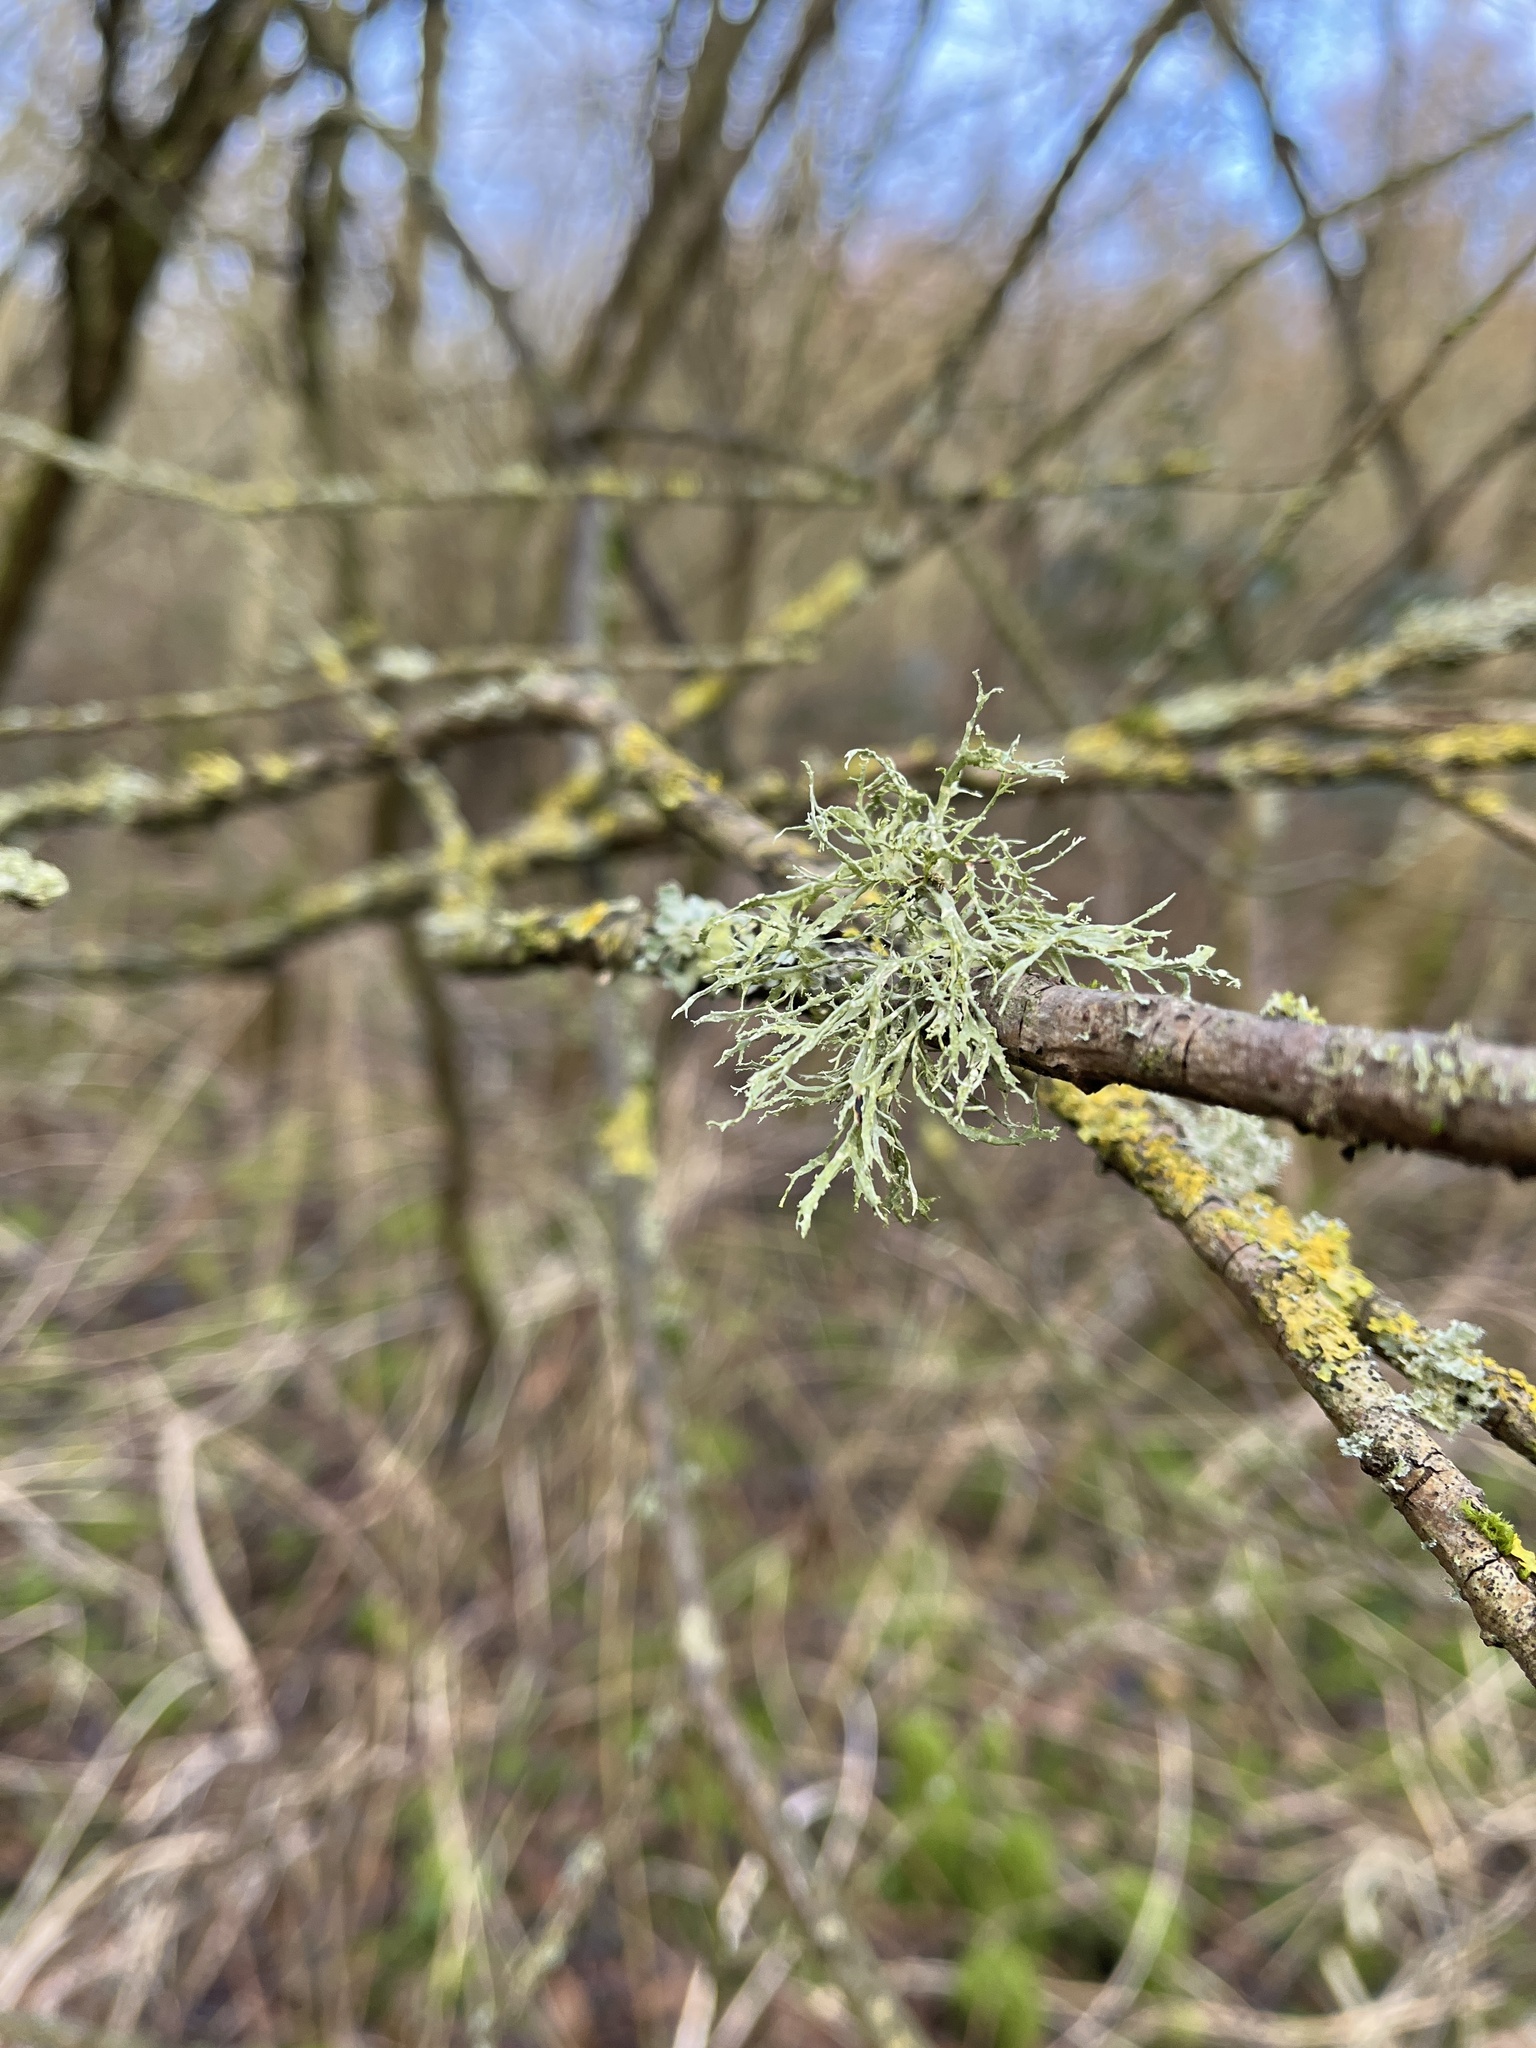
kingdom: Fungi
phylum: Ascomycota
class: Lecanoromycetes
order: Lecanorales
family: Ramalinaceae
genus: Ramalina
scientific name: Ramalina farinacea
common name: Farinose cartilage lichen
